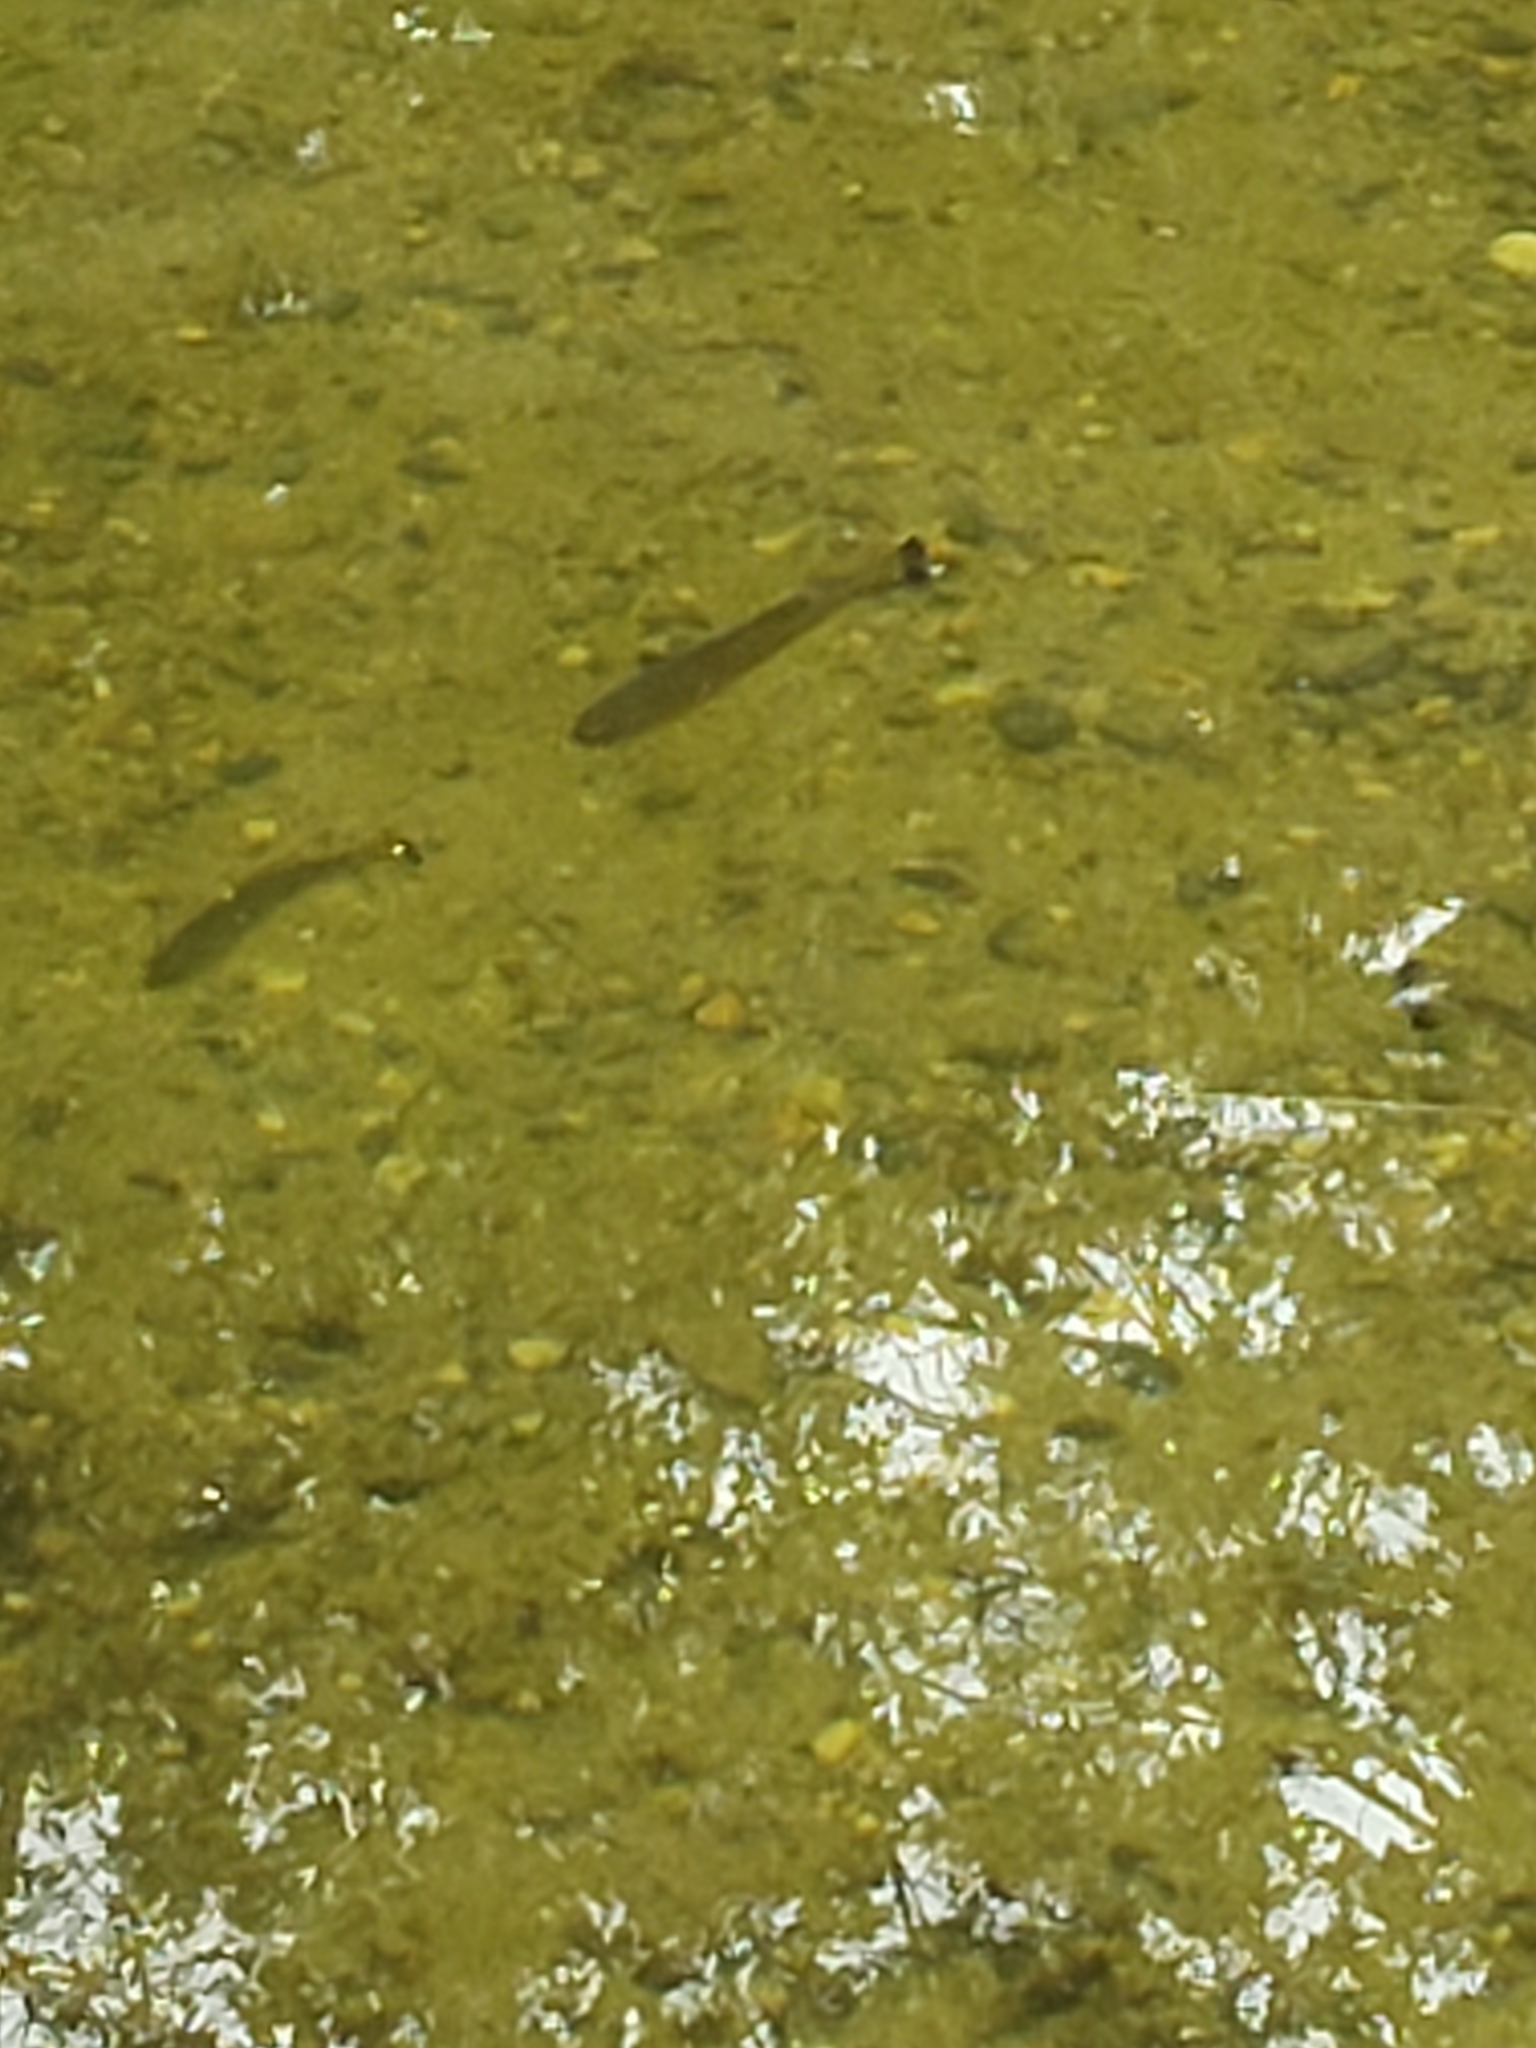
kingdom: Animalia
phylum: Chordata
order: Perciformes
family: Centrarchidae
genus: Micropterus
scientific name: Micropterus
